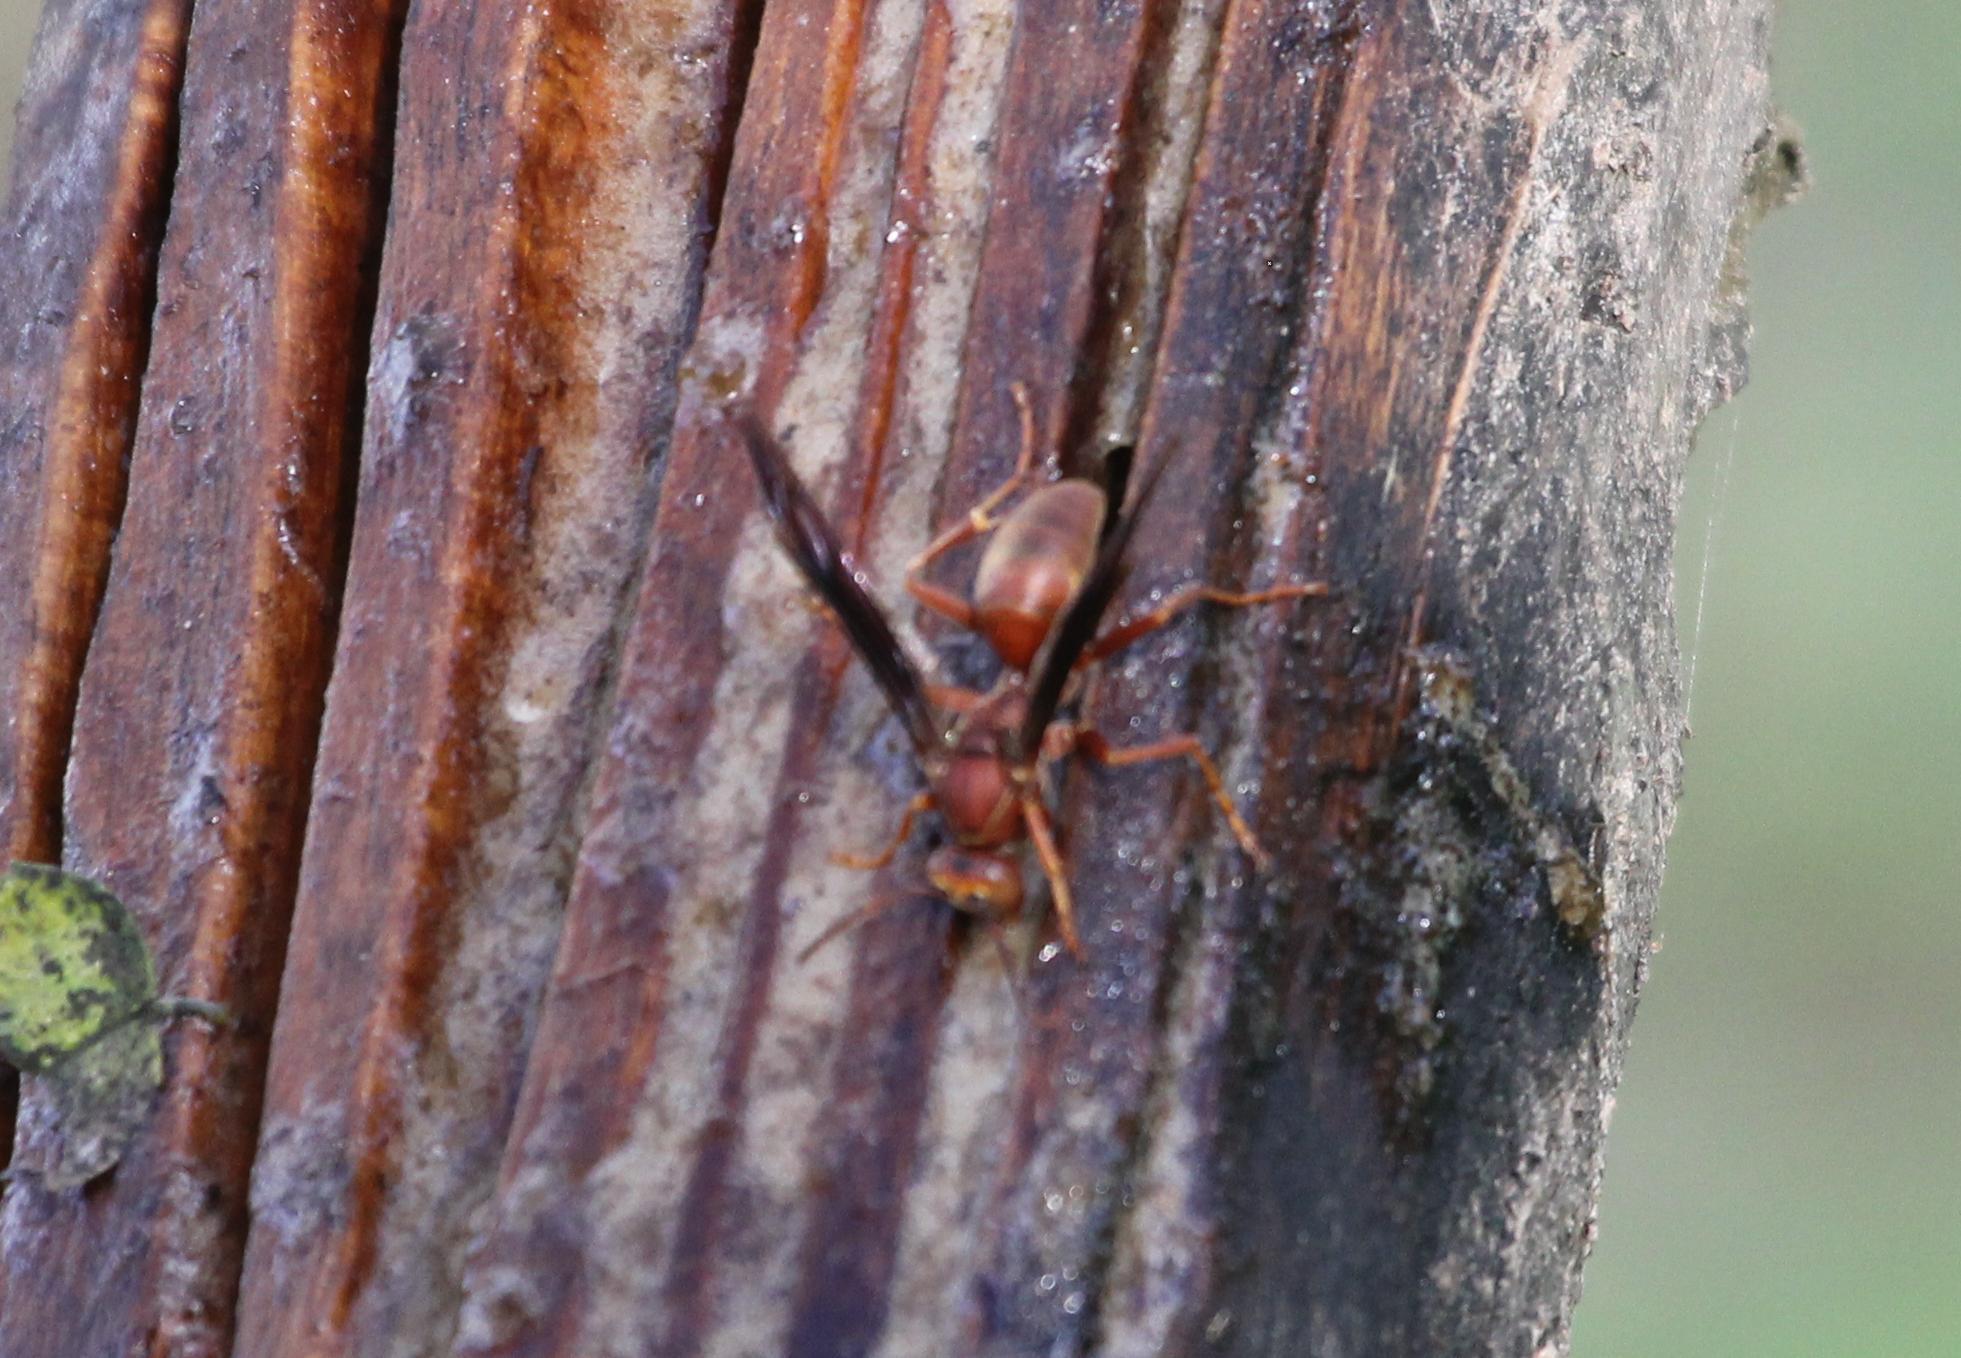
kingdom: Animalia
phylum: Arthropoda
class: Insecta
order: Hymenoptera
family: Vespidae
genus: Fuscopolistes
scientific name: Fuscopolistes
